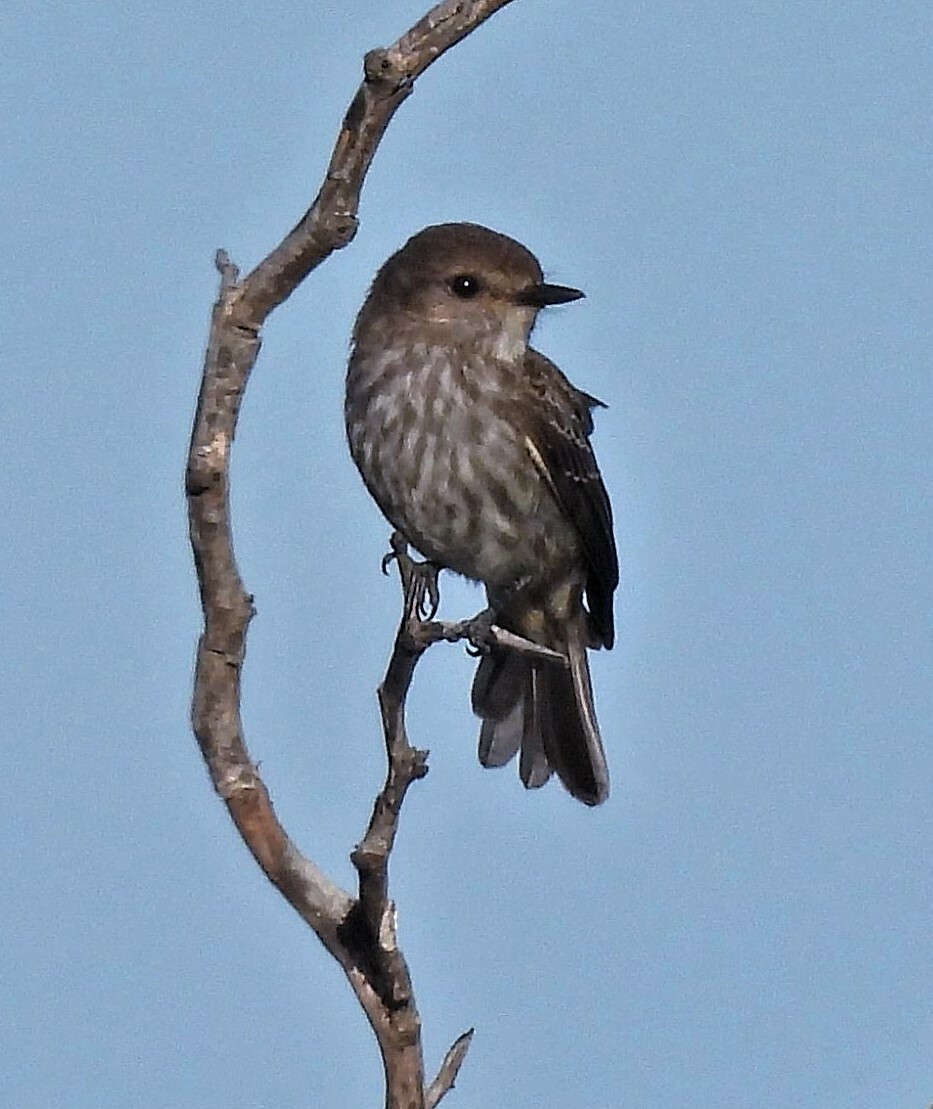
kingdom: Animalia
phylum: Chordata
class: Aves
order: Passeriformes
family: Tyrannidae
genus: Pyrocephalus
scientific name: Pyrocephalus rubinus
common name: Vermilion flycatcher
